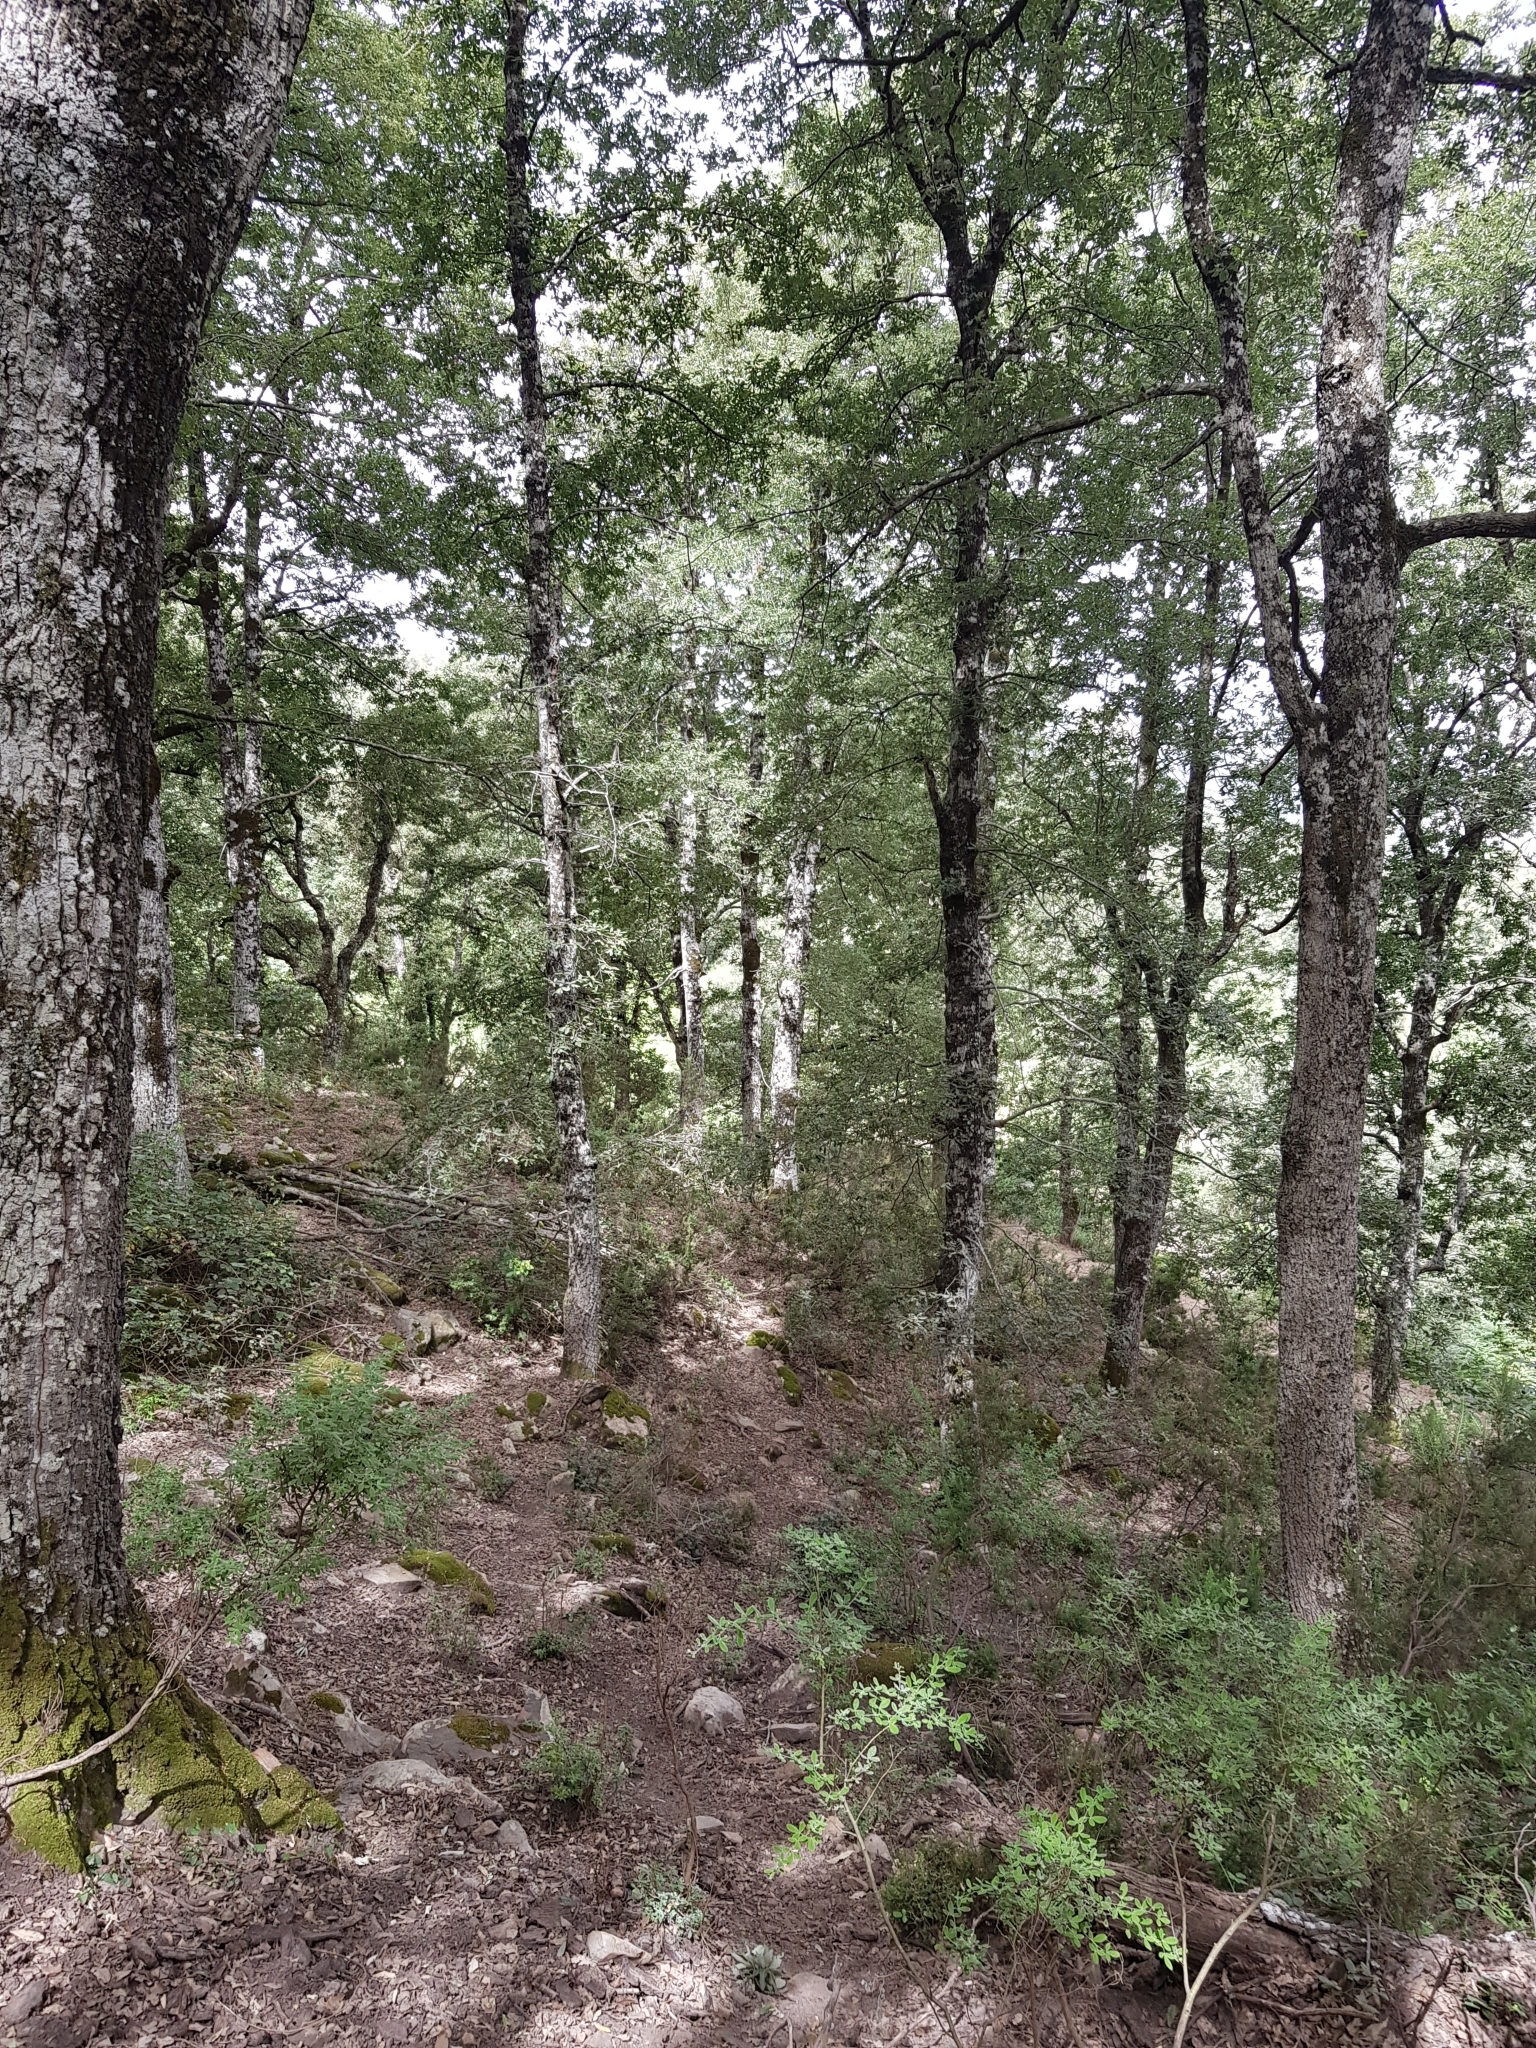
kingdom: Plantae
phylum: Tracheophyta
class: Magnoliopsida
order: Fagales
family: Fagaceae
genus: Quercus
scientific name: Quercus afares
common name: African oak
